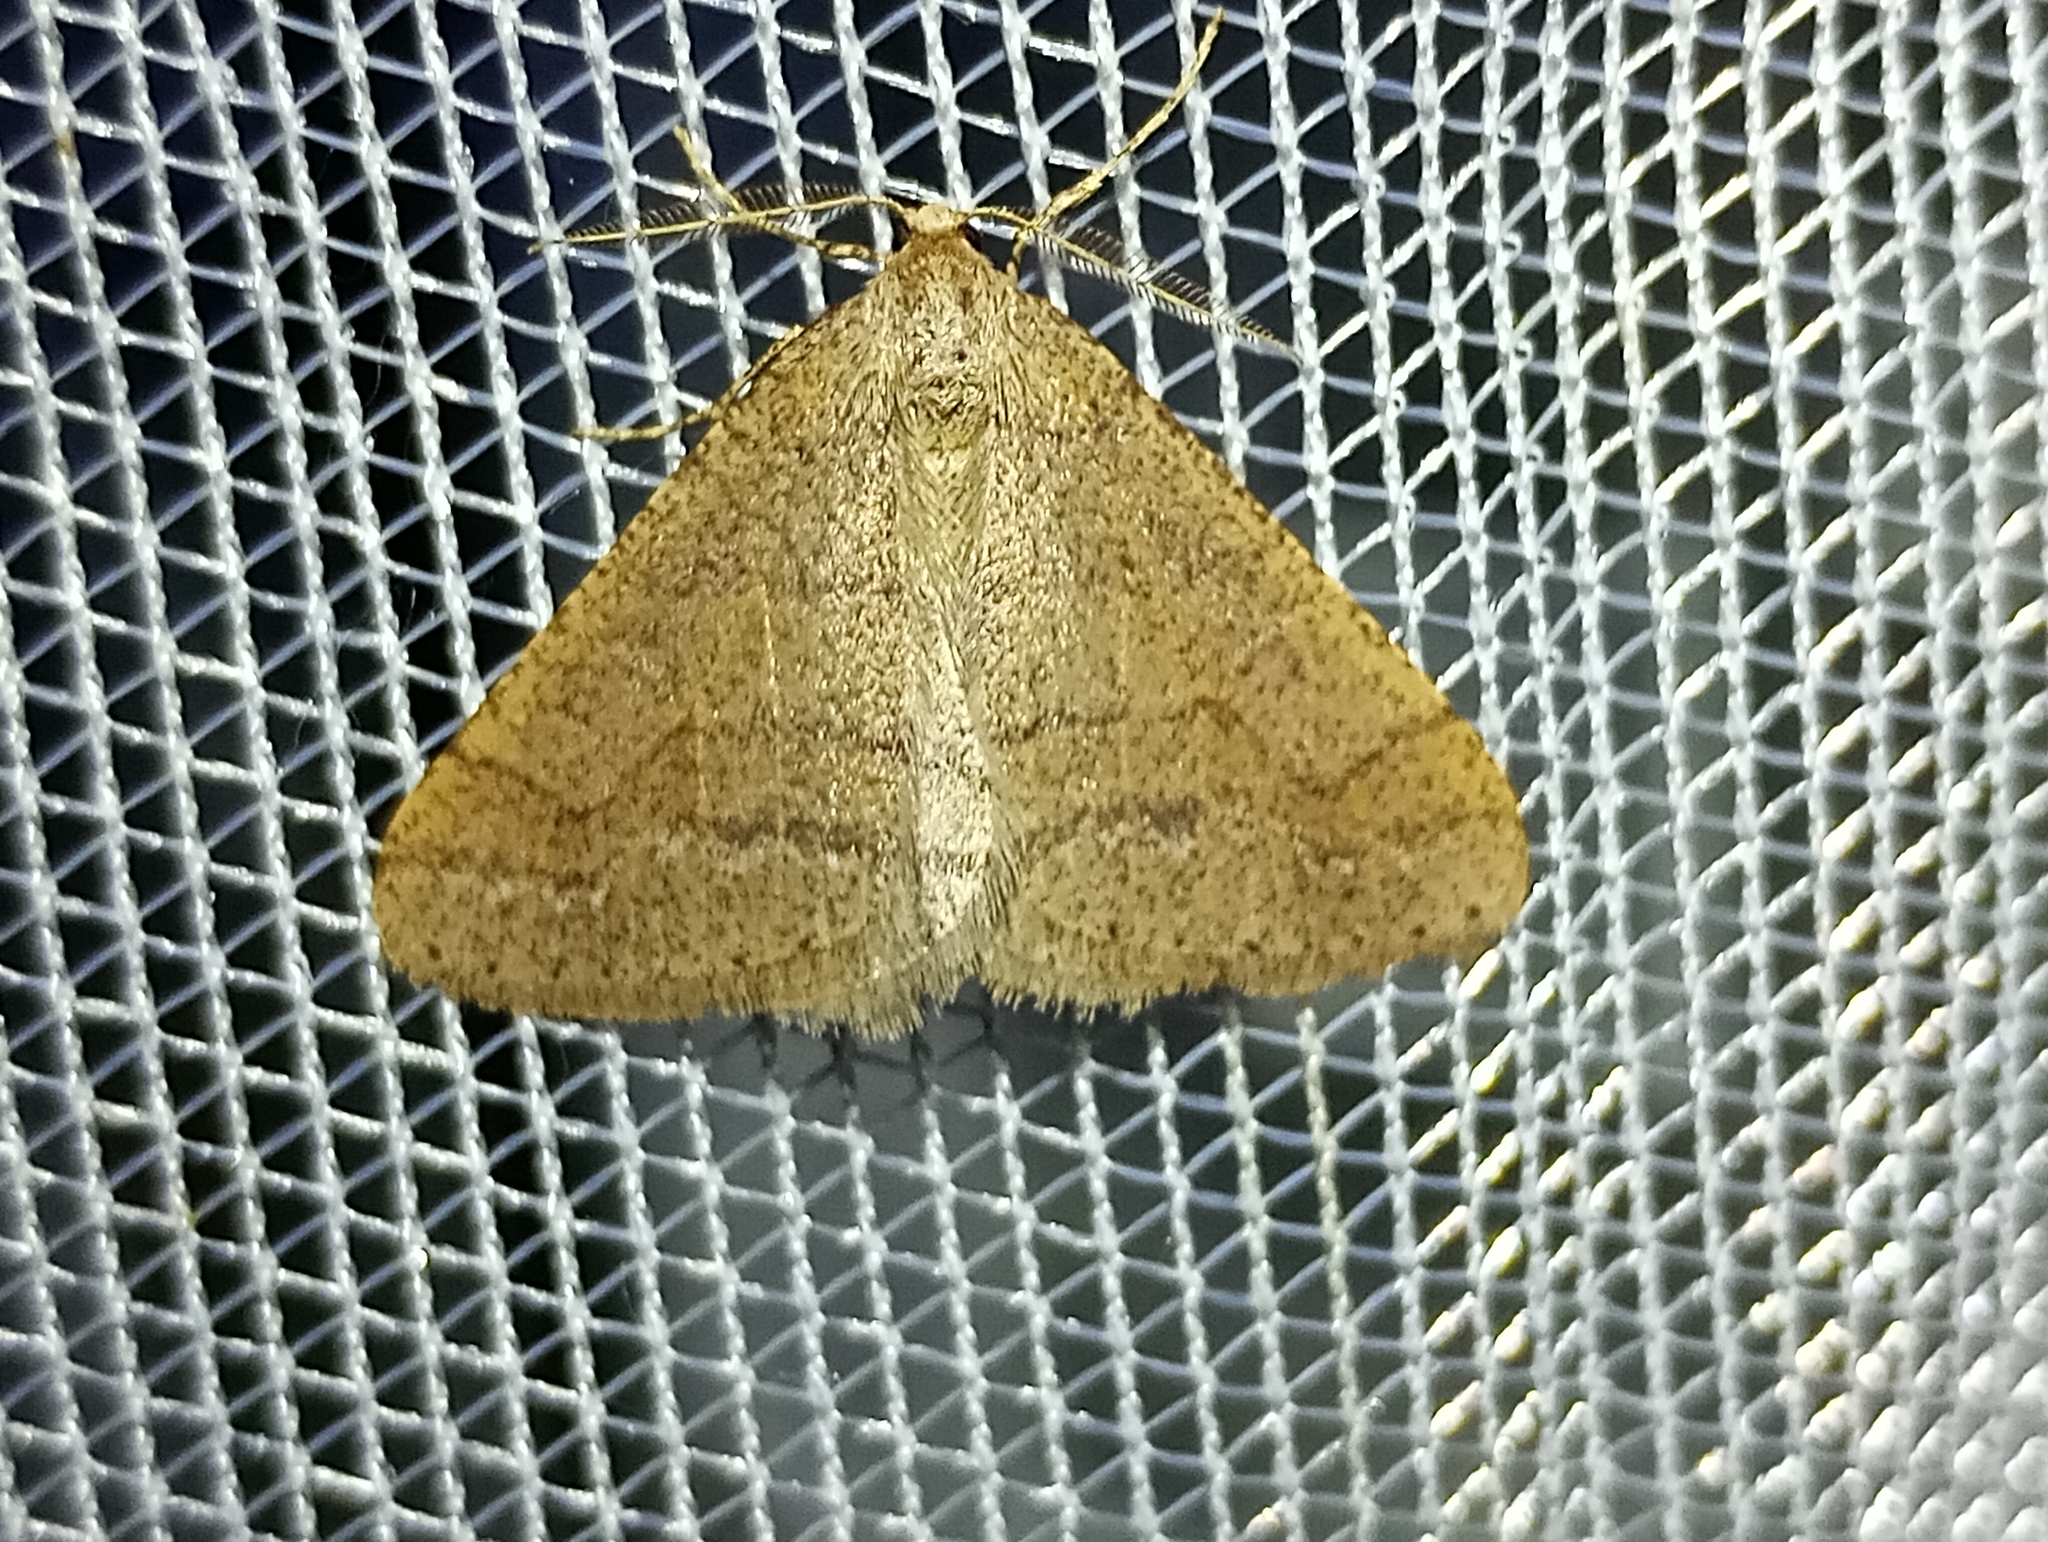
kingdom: Animalia
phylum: Arthropoda
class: Insecta
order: Lepidoptera
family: Geometridae
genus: Agriopis
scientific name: Agriopis marginaria
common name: Dotted border
